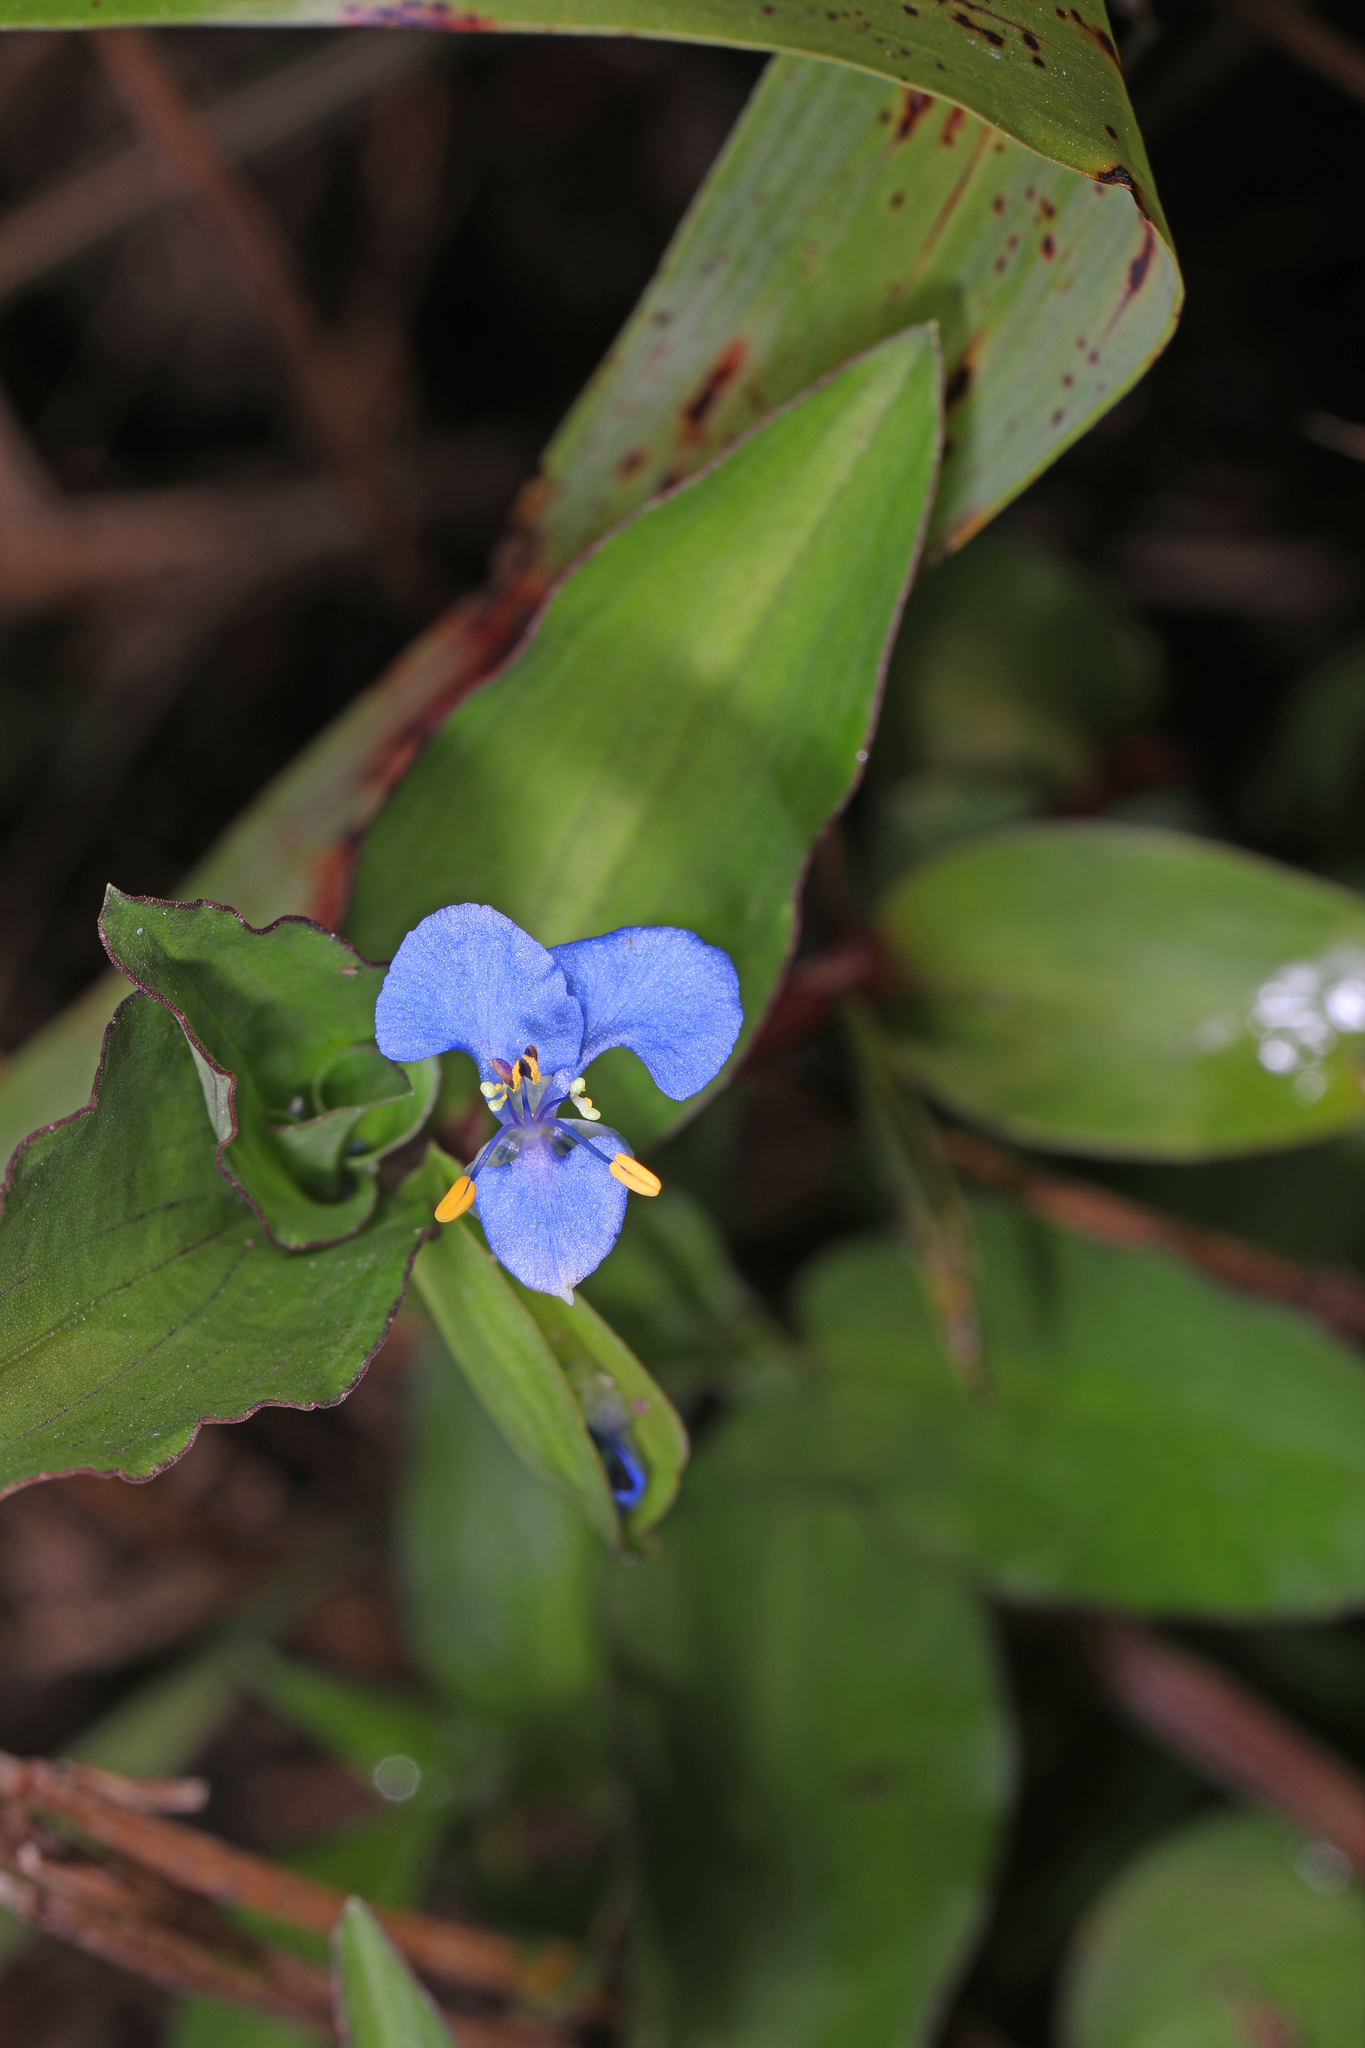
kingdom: Plantae
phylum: Tracheophyta
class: Liliopsida
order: Commelinales
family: Commelinaceae
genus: Commelina
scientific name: Commelina diffusa
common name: Climbing dayflower
